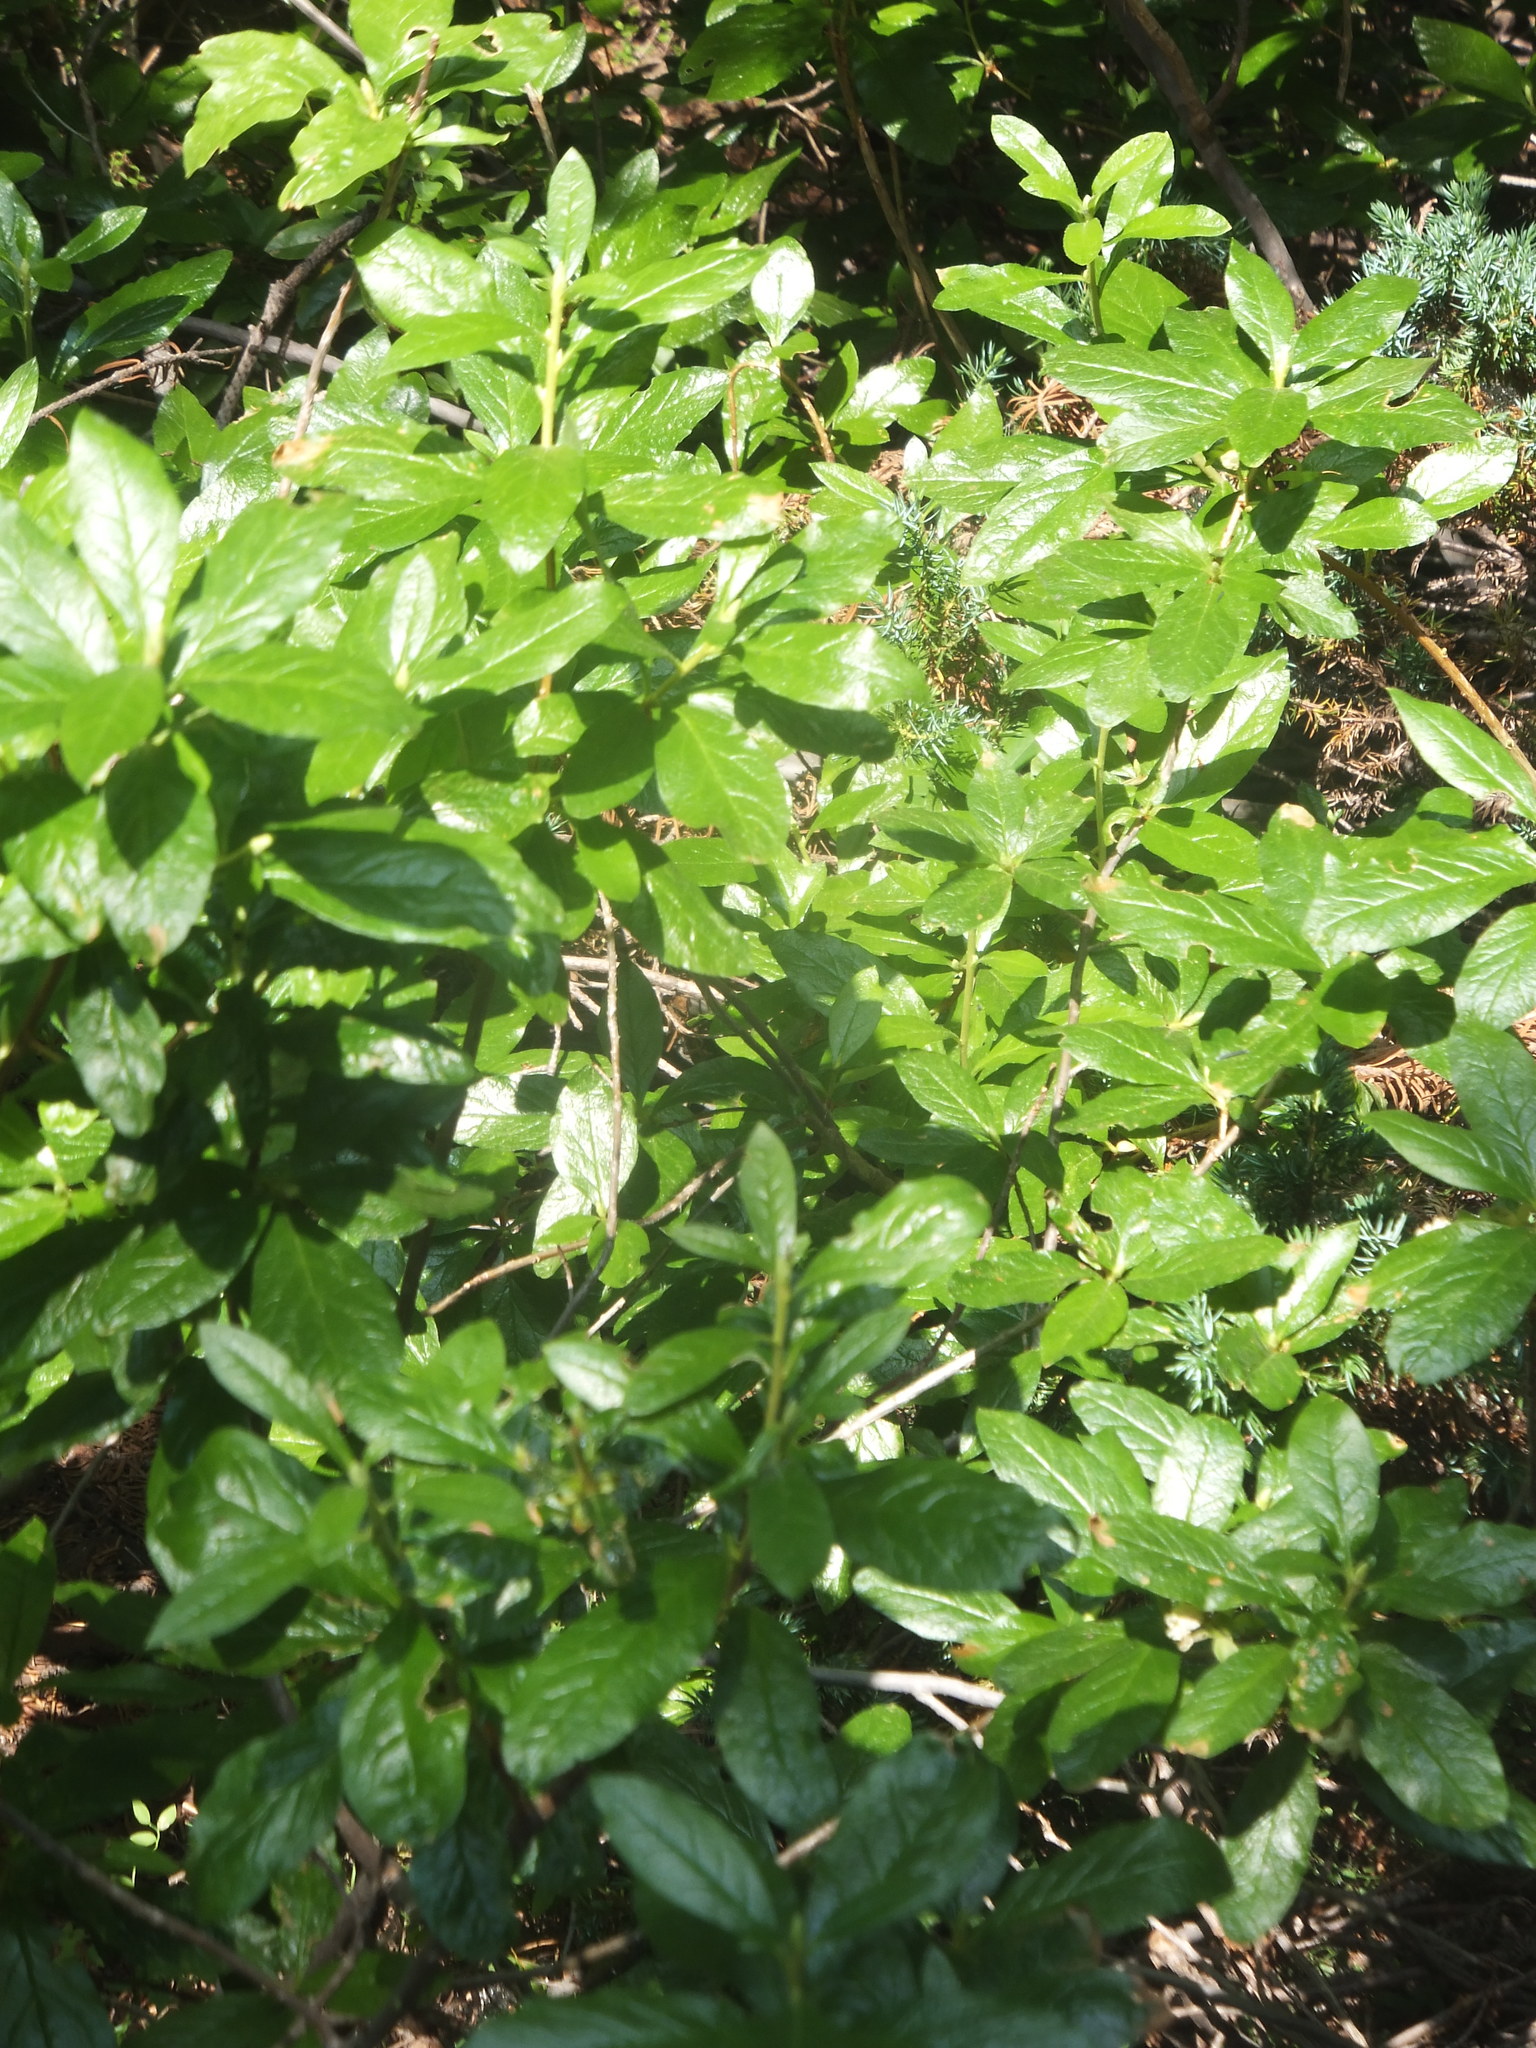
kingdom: Plantae
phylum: Tracheophyta
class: Magnoliopsida
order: Ericales
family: Ericaceae
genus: Rhododendron
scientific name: Rhododendron albiflorum
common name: White rhododendron
